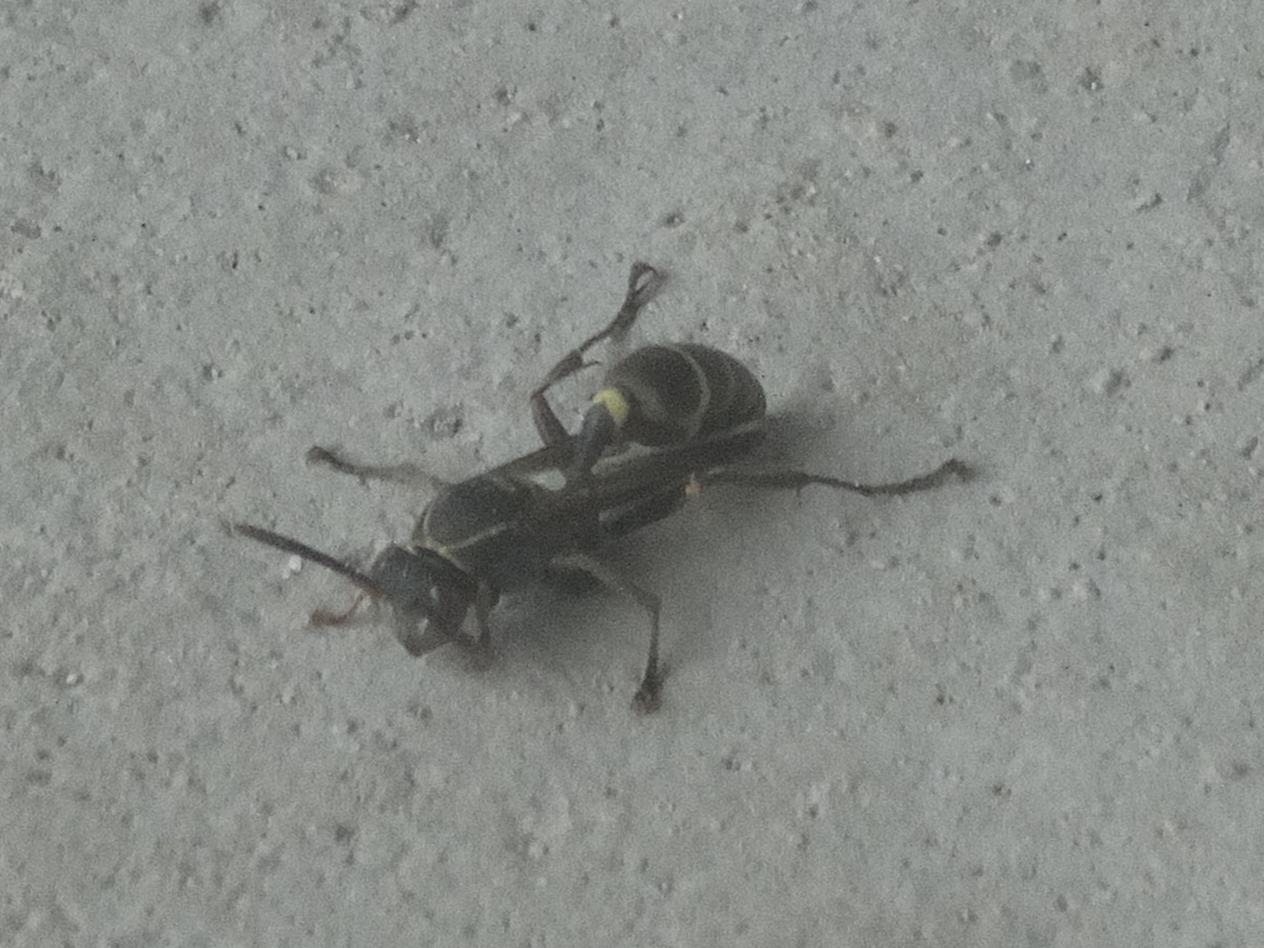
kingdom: Animalia
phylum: Arthropoda
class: Insecta
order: Hymenoptera
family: Vespidae
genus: Mischocyttarus
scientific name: Mischocyttarus
